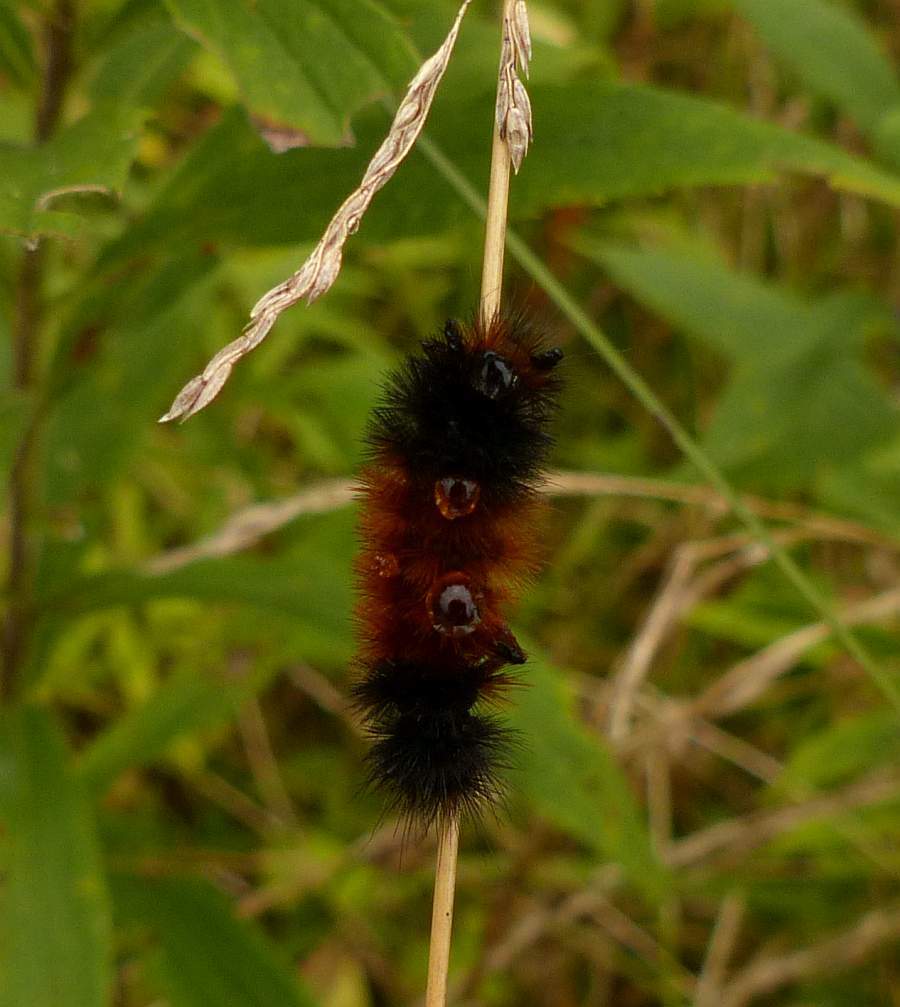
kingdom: Animalia
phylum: Arthropoda
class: Insecta
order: Lepidoptera
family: Erebidae
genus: Pyrrharctia
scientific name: Pyrrharctia isabella
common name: Isabella tiger moth
